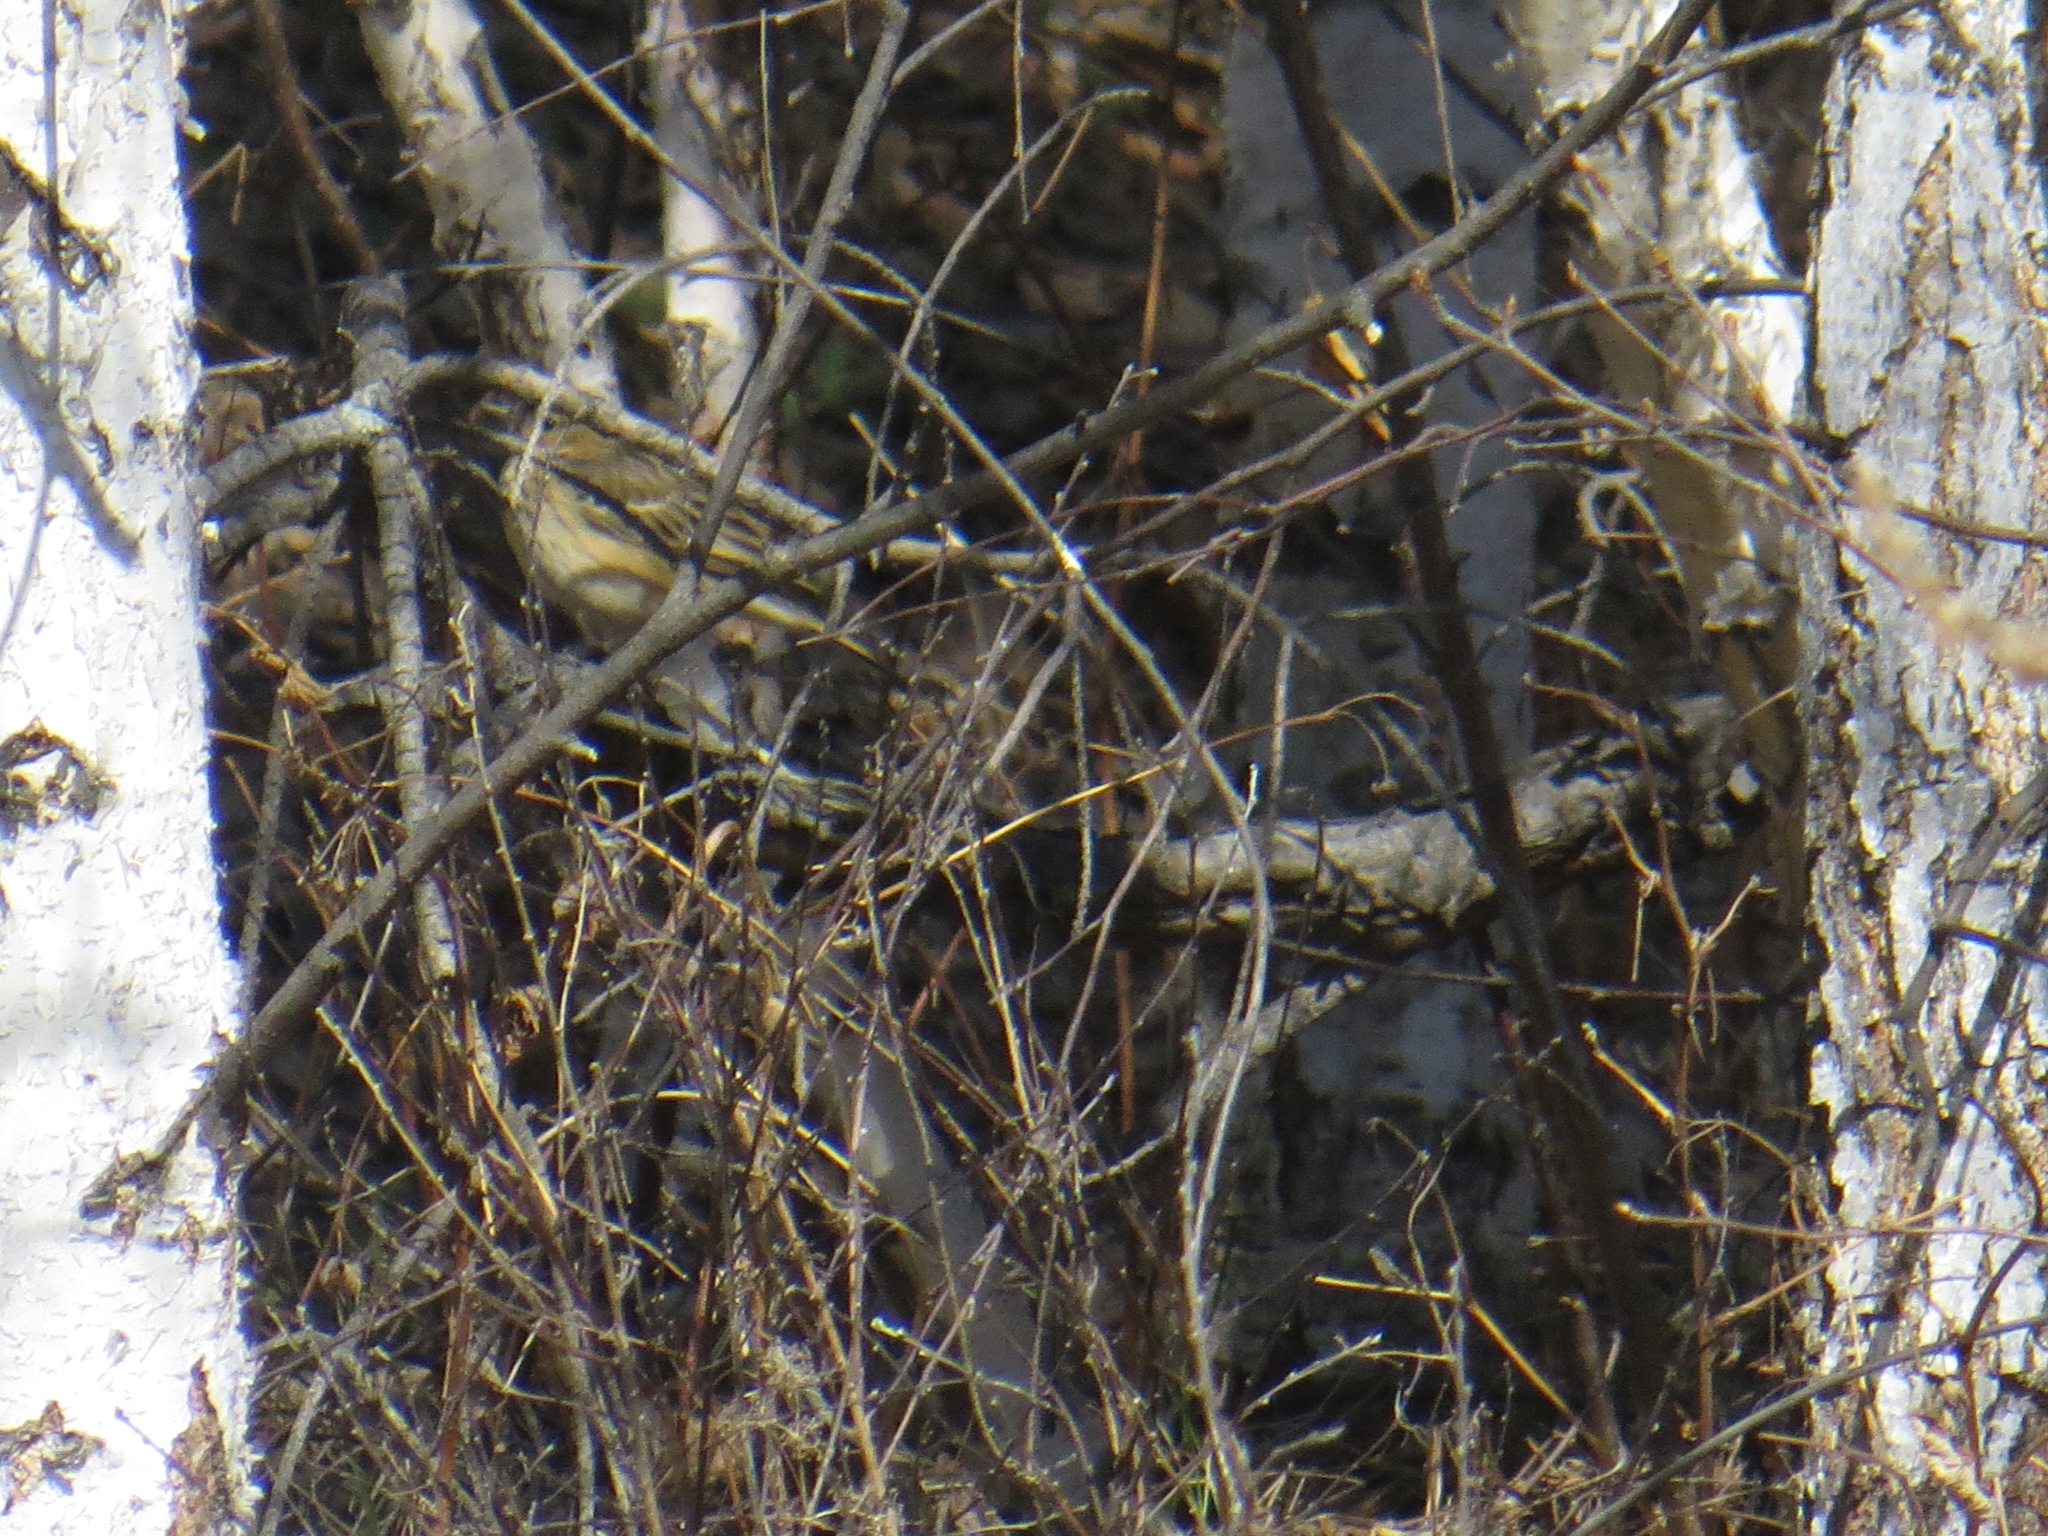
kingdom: Animalia
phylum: Chordata
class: Aves
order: Passeriformes
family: Motacillidae
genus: Anthus
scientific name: Anthus trivialis
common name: Tree pipit
